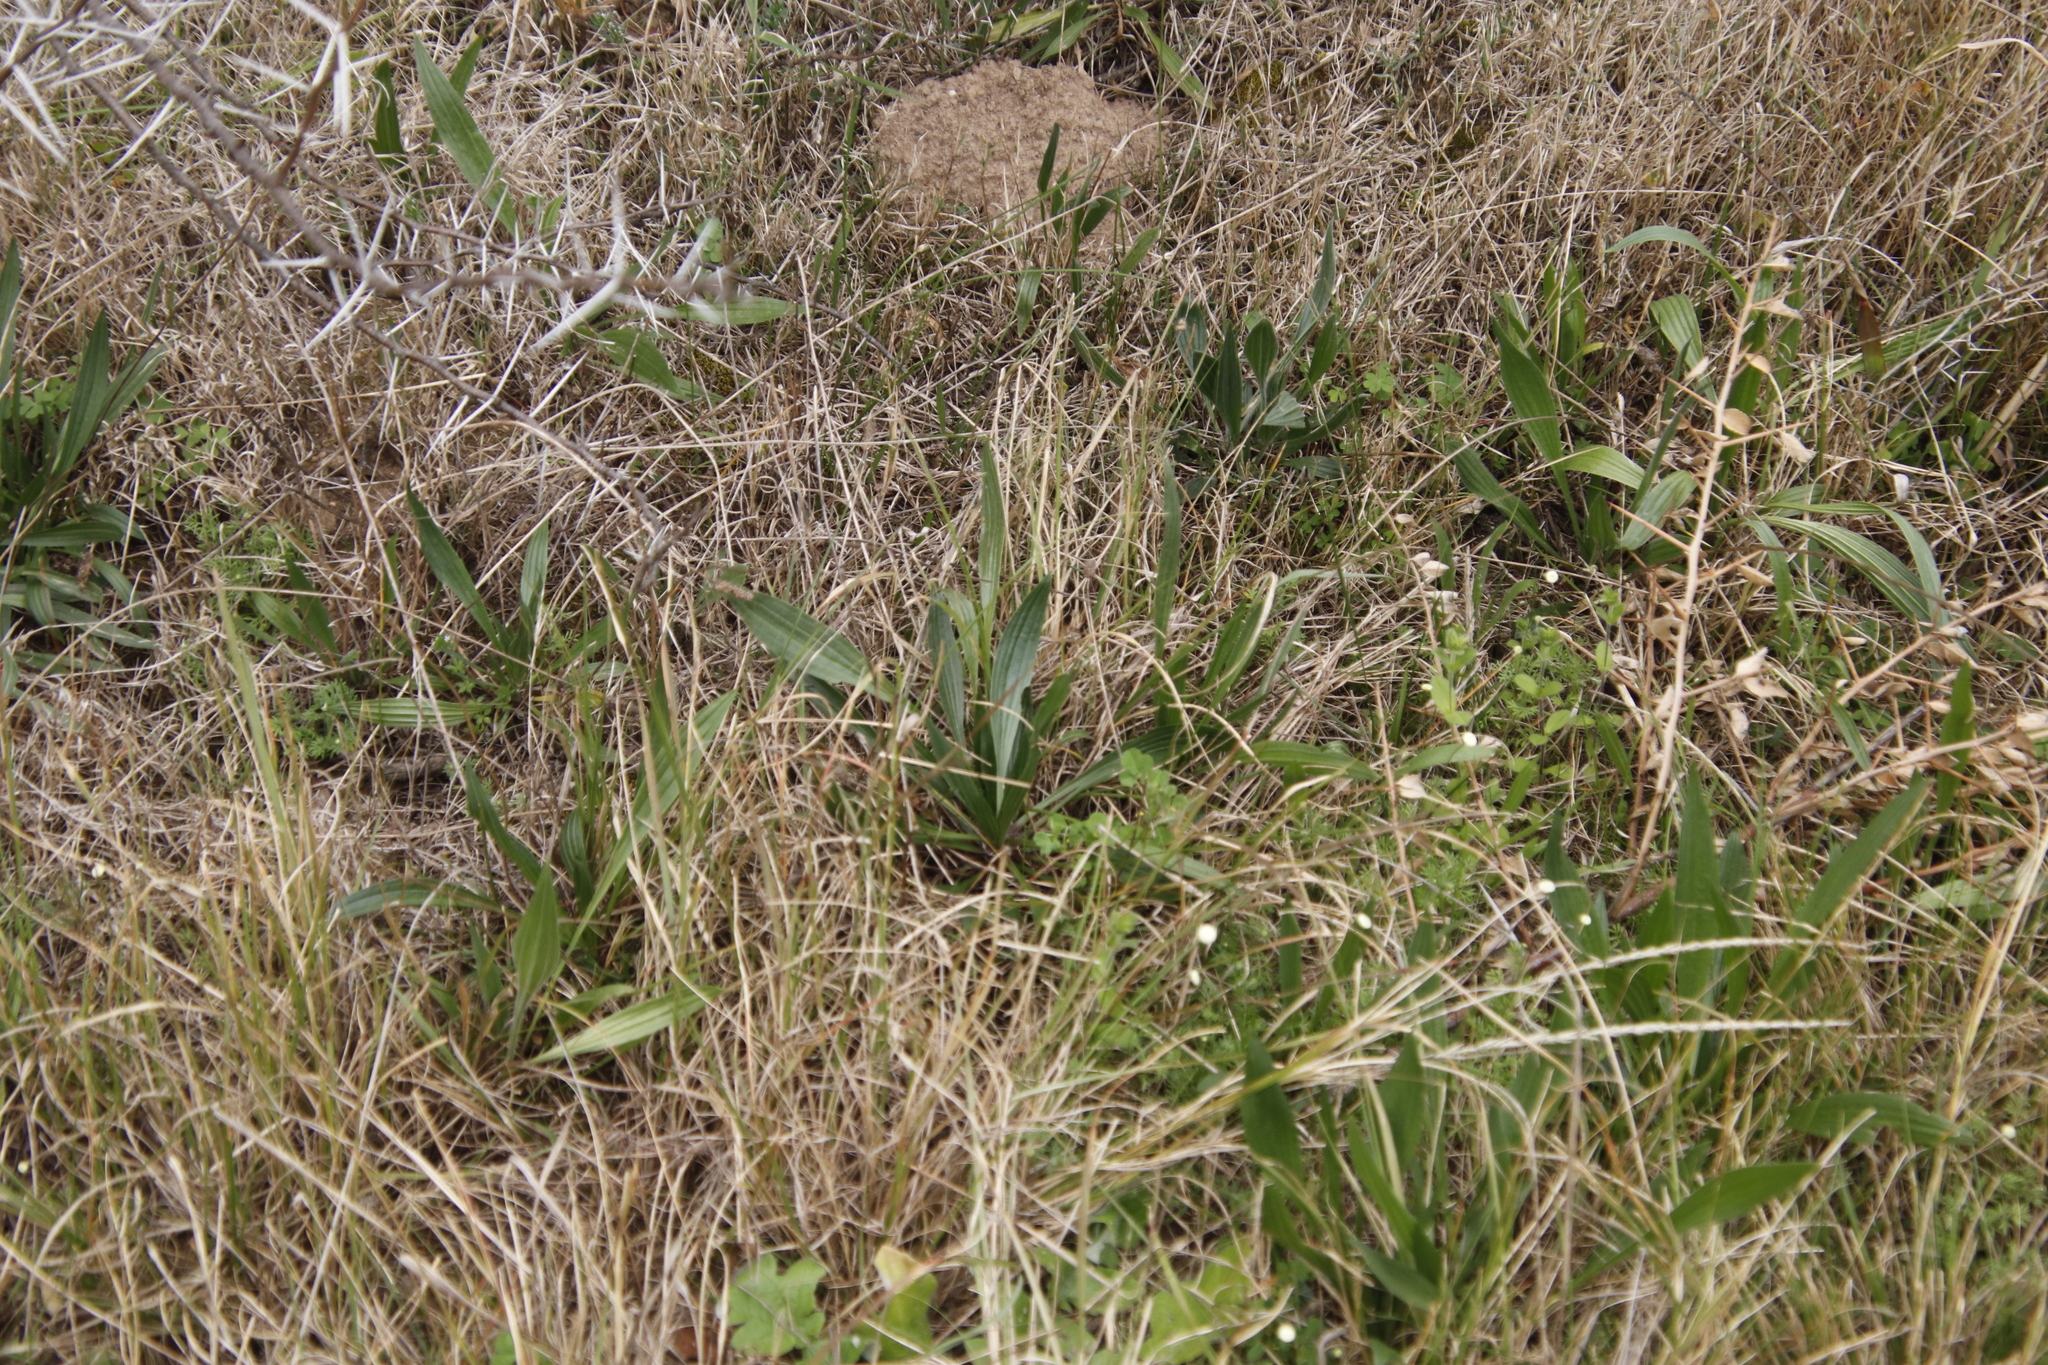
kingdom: Plantae
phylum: Tracheophyta
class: Magnoliopsida
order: Lamiales
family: Plantaginaceae
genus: Plantago
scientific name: Plantago lanceolata
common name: Ribwort plantain
